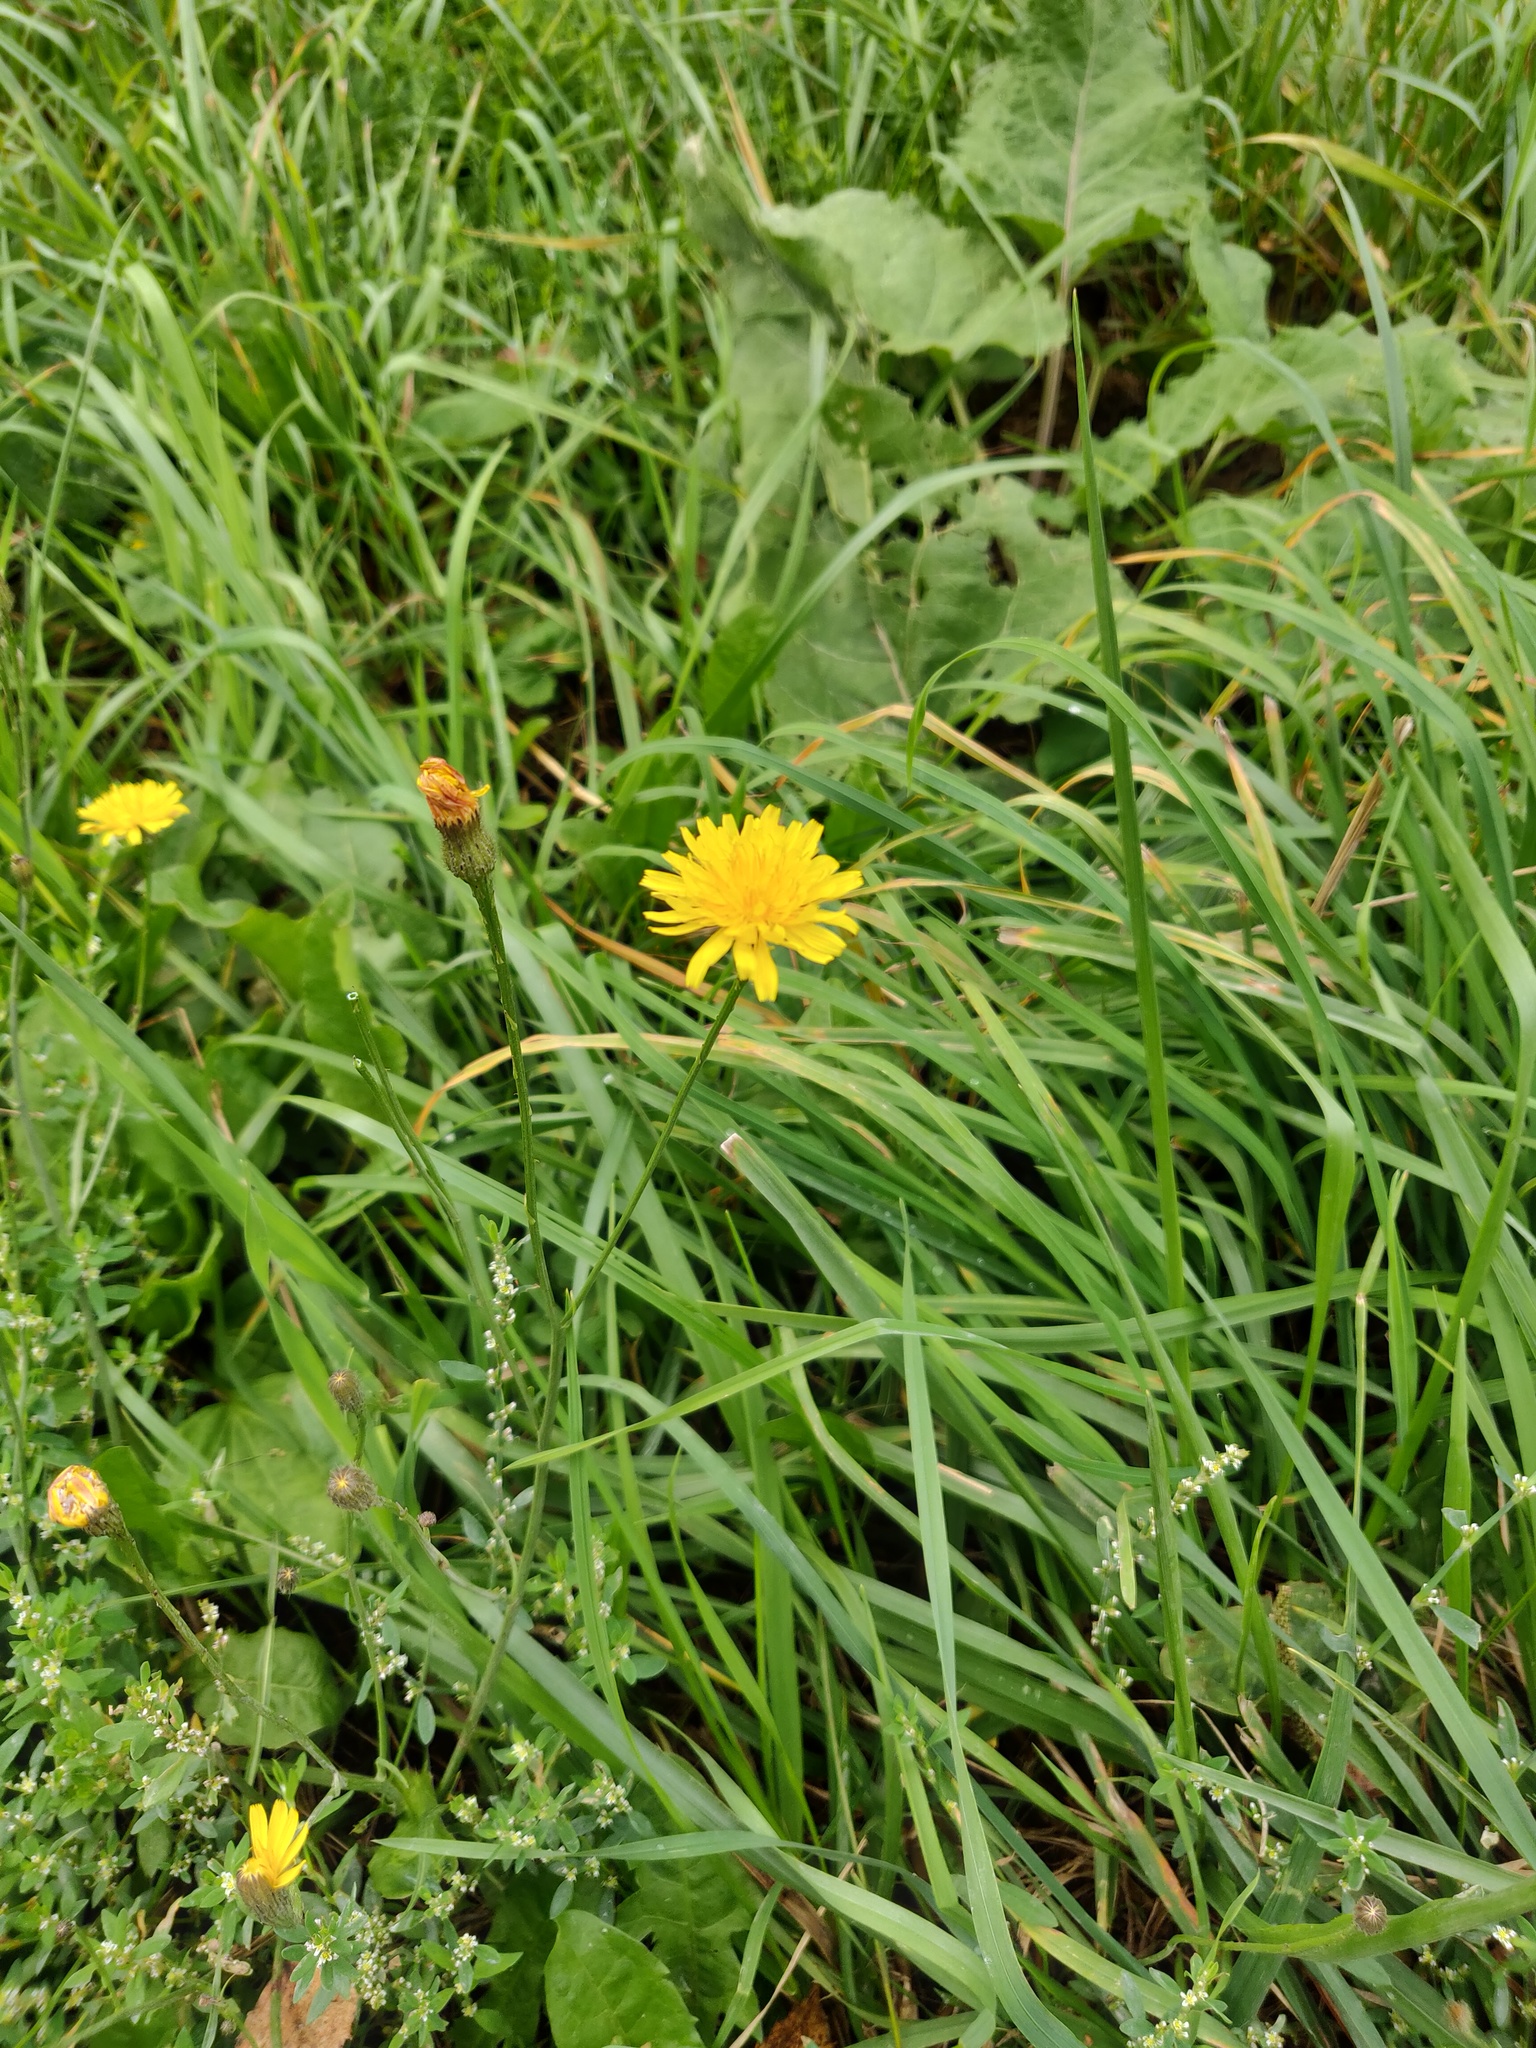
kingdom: Plantae
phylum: Tracheophyta
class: Magnoliopsida
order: Asterales
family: Asteraceae
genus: Scorzoneroides
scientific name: Scorzoneroides autumnalis
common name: Autumn hawkbit
